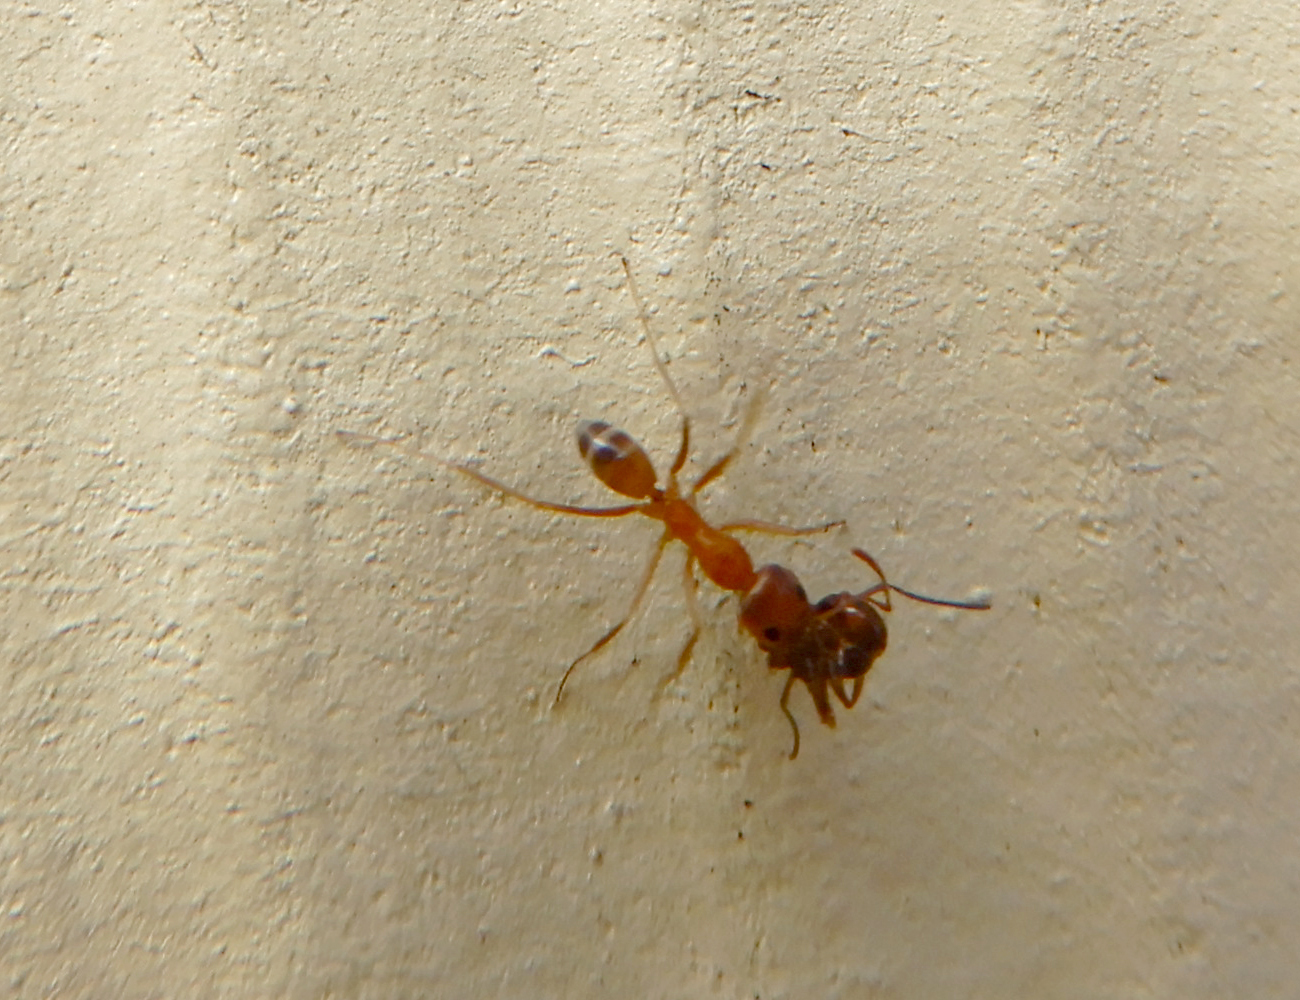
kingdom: Animalia
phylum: Arthropoda
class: Insecta
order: Hymenoptera
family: Formicidae
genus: Dorymyrmex
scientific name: Dorymyrmex bureni
